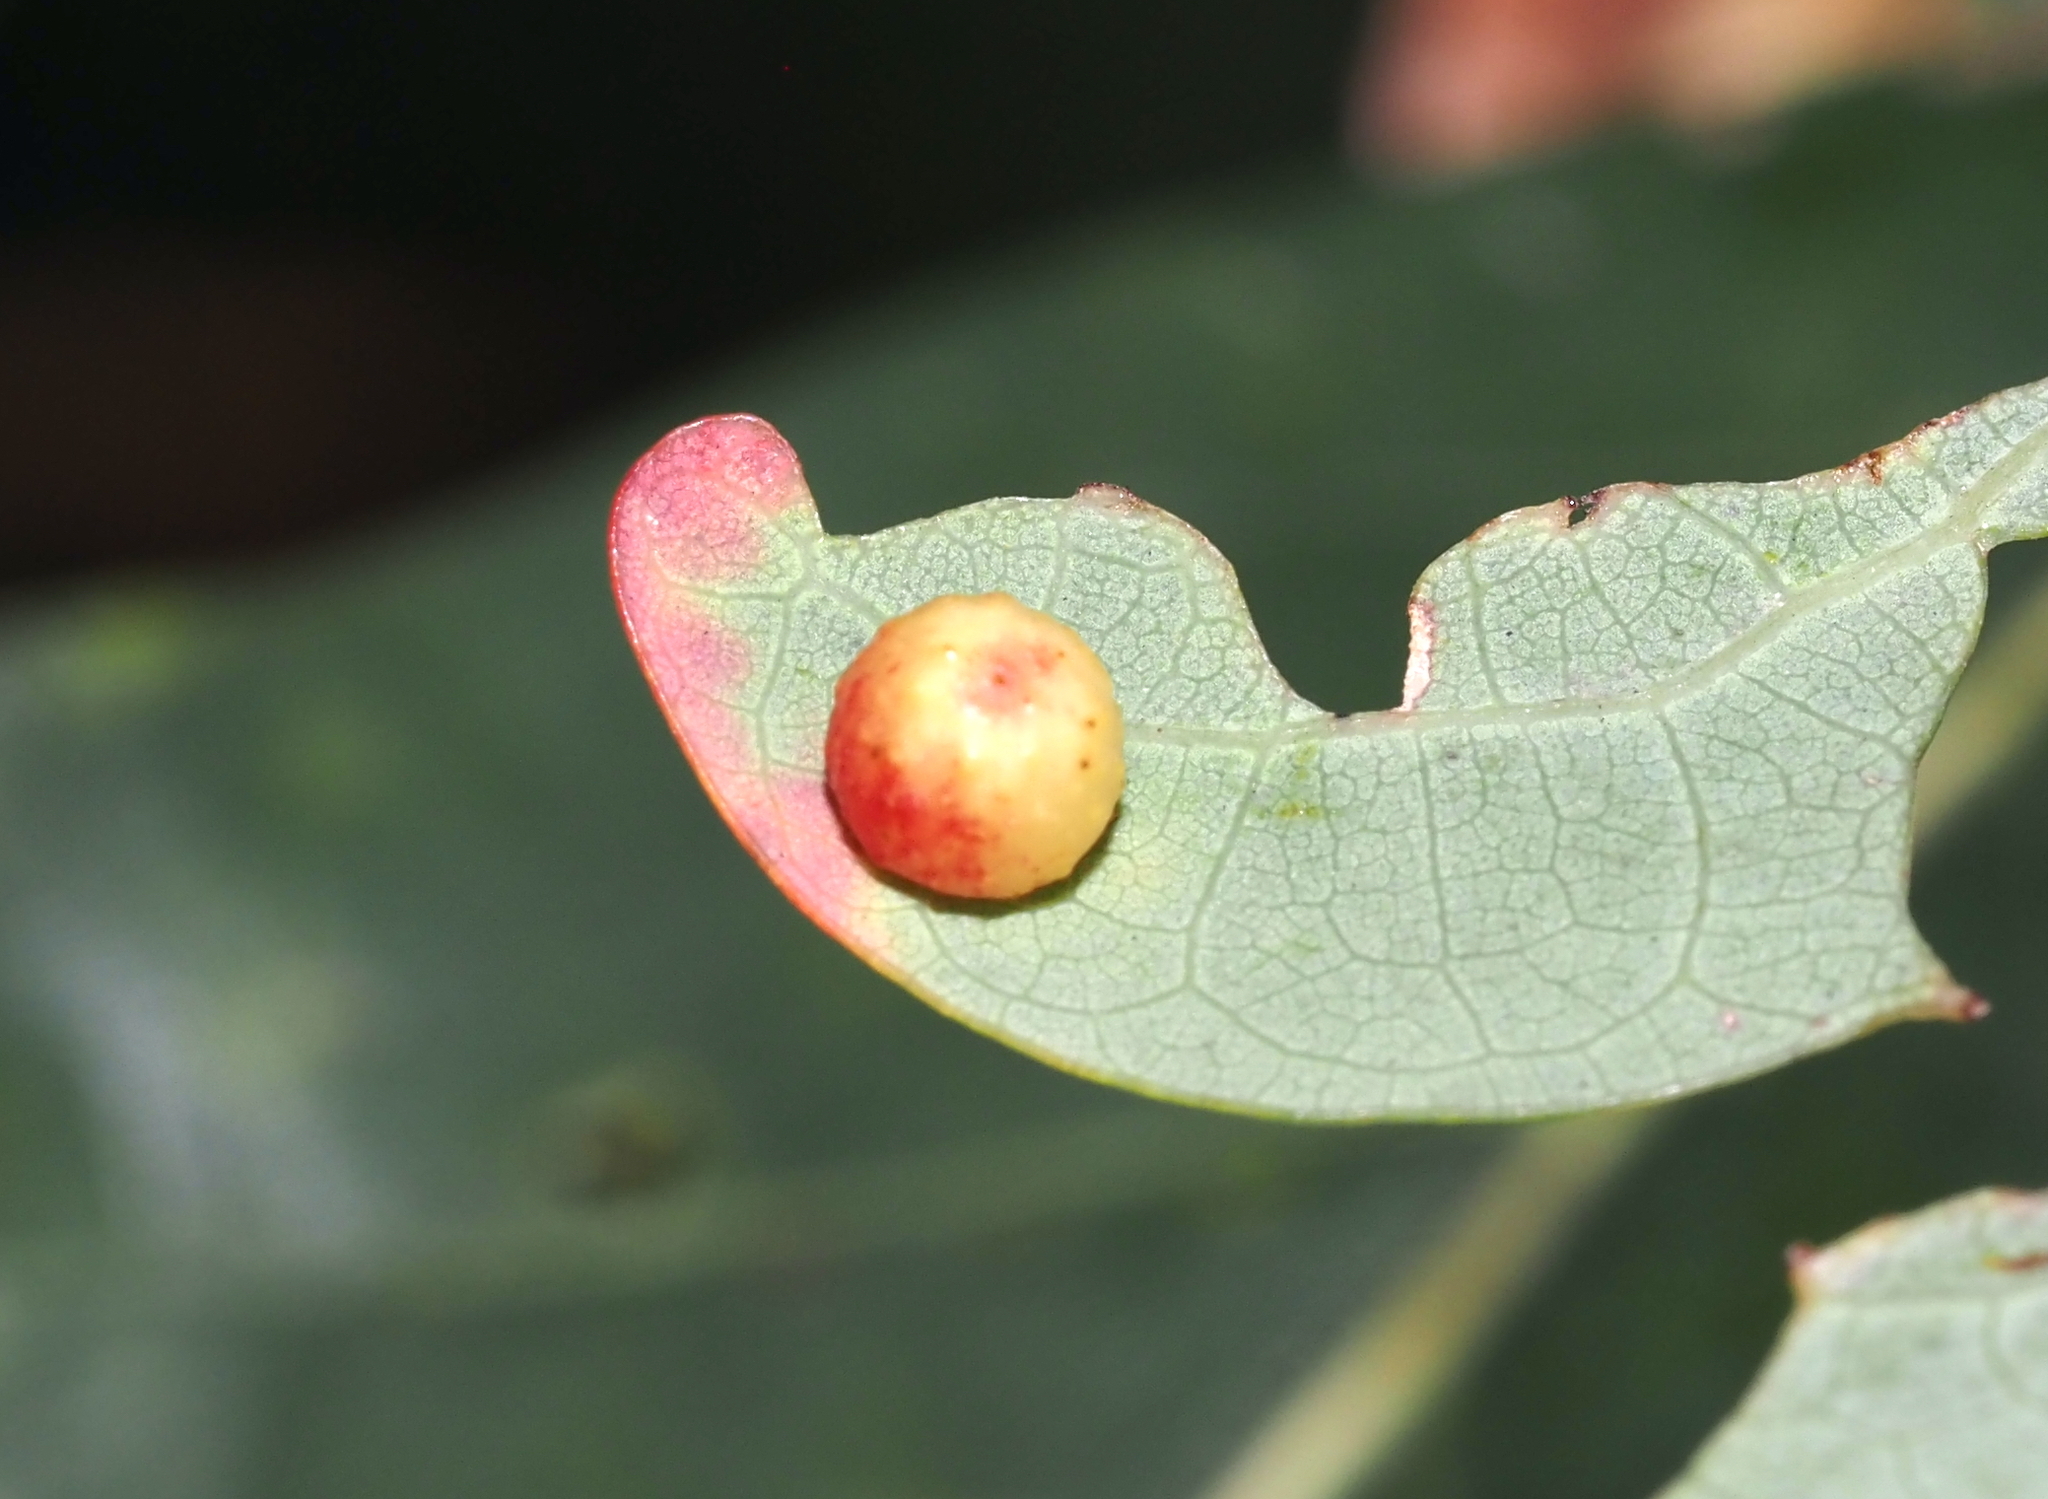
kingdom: Animalia
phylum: Arthropoda
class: Insecta
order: Hymenoptera
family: Cynipidae
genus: Andricus
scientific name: Andricus
